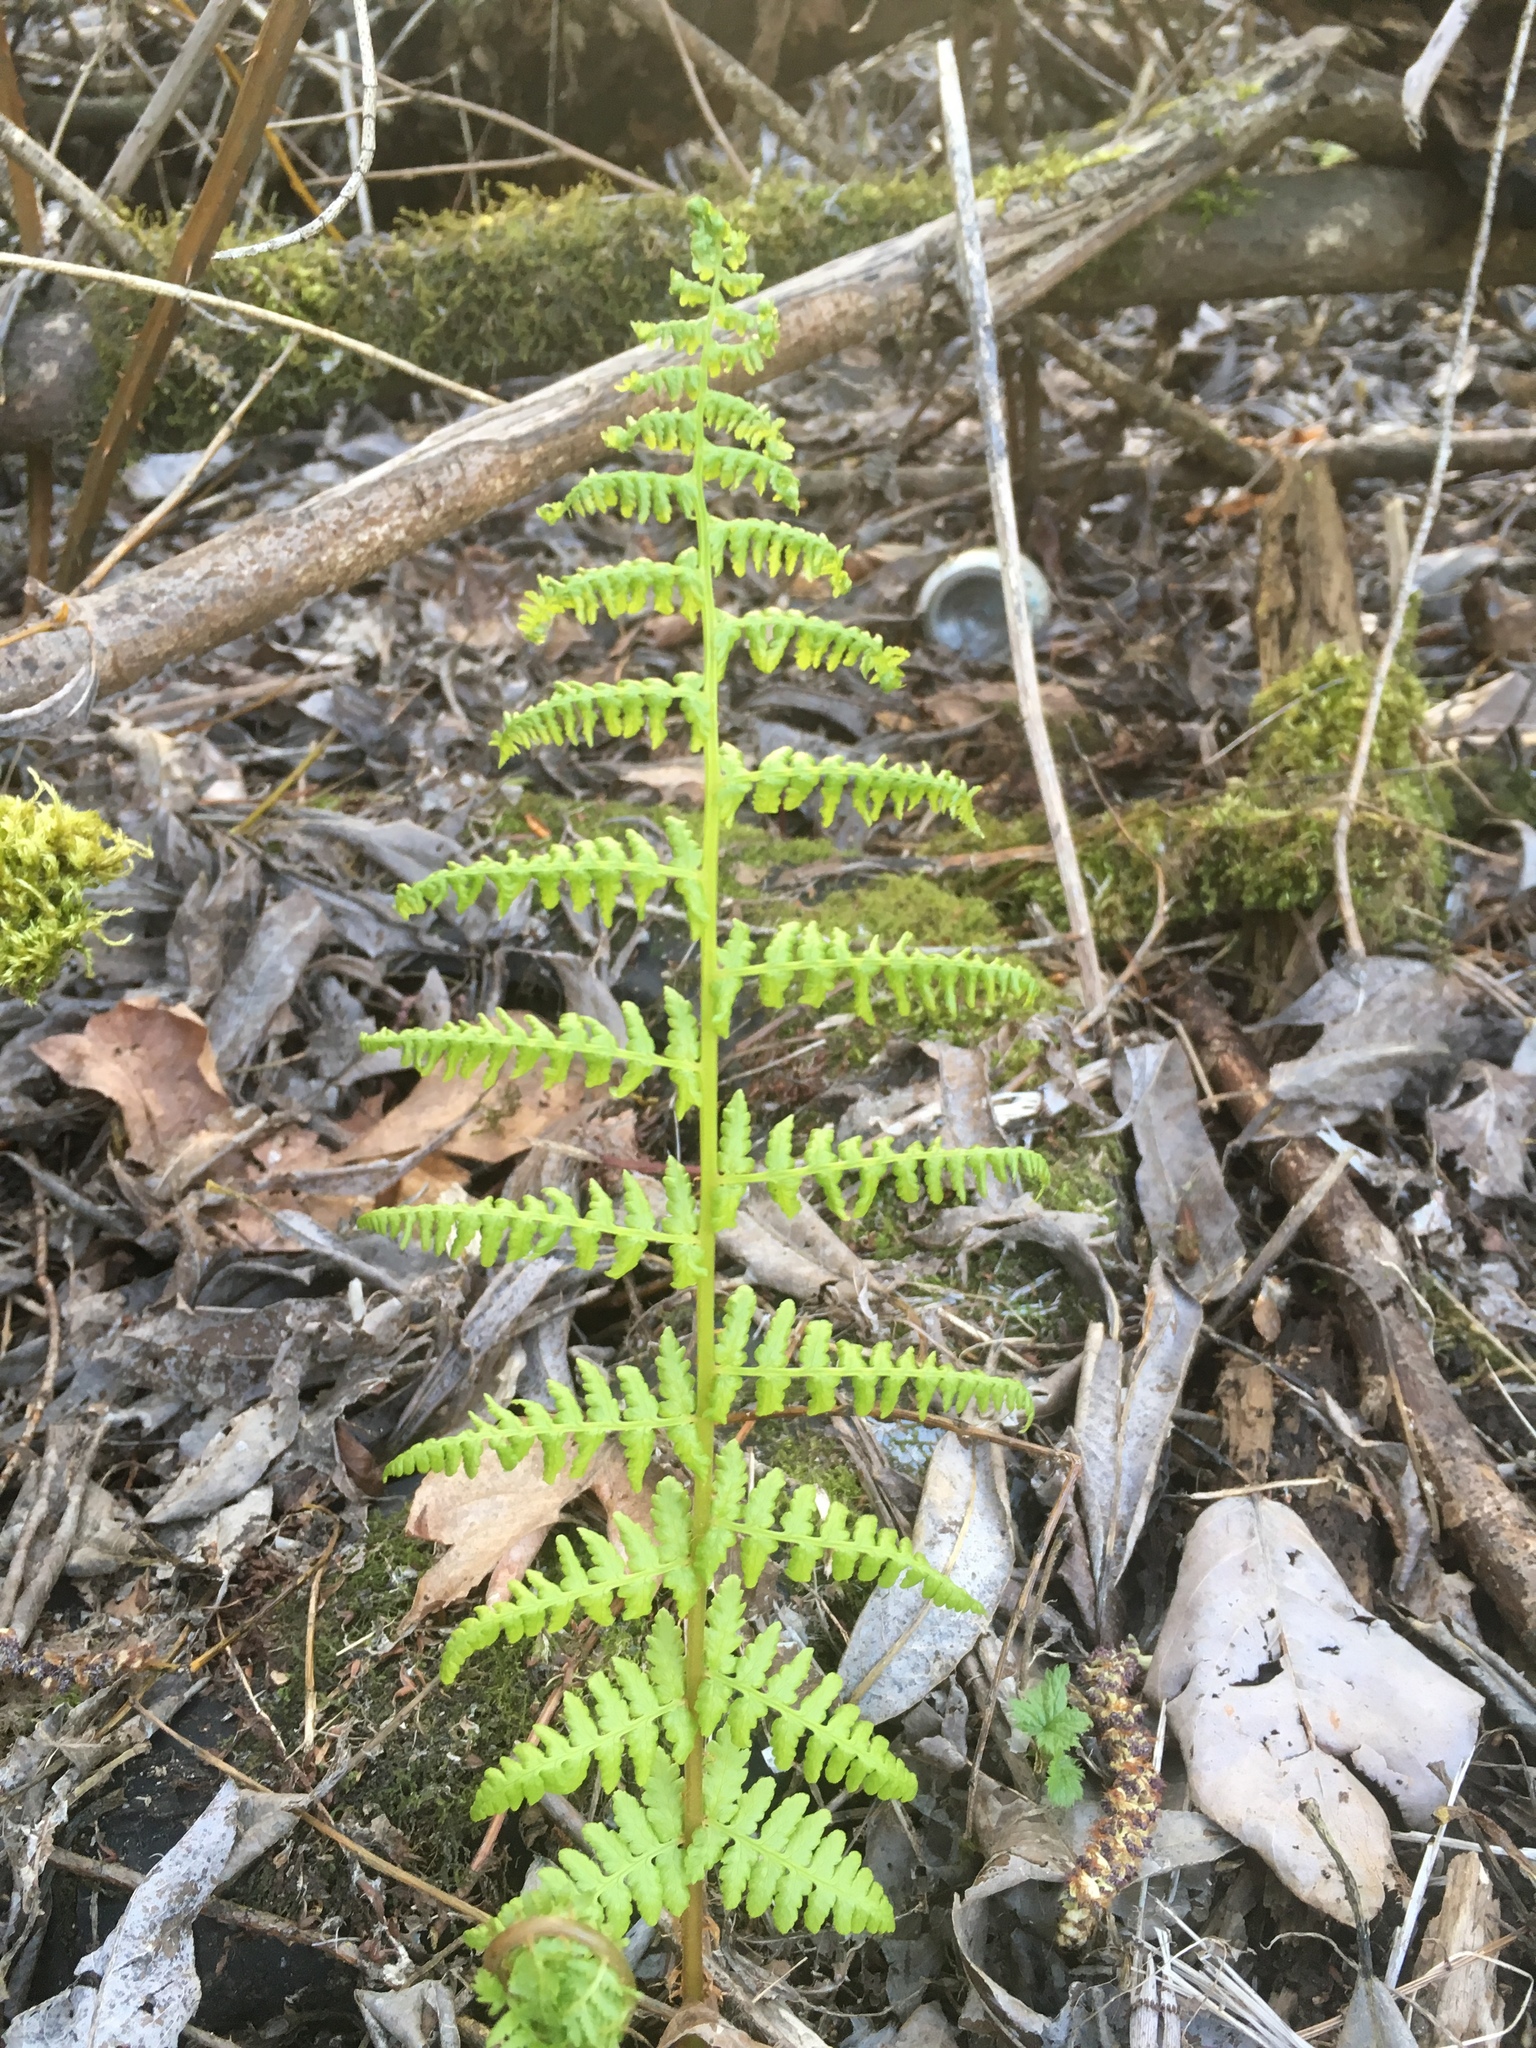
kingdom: Plantae
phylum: Tracheophyta
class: Polypodiopsida
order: Polypodiales
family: Athyriaceae
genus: Athyrium
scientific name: Athyrium filix-femina
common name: Lady fern
